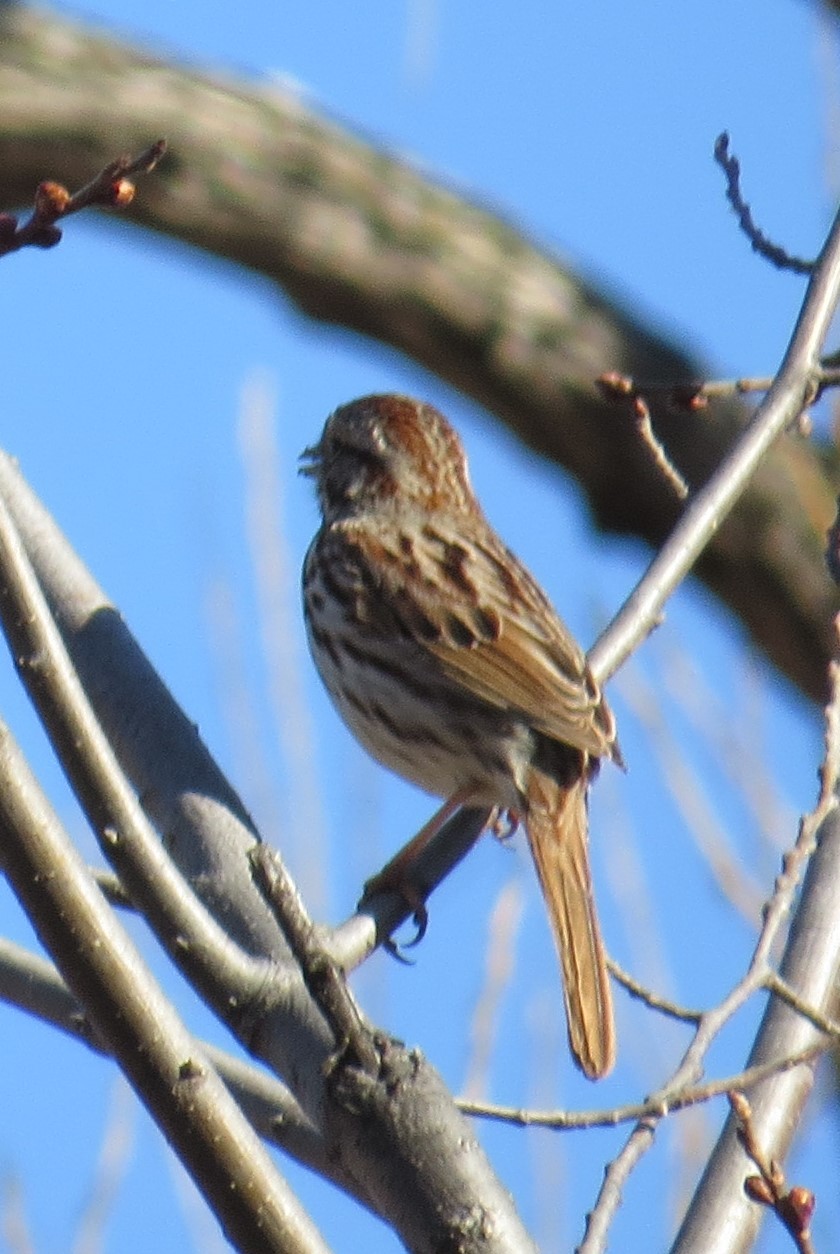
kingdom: Animalia
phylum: Chordata
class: Aves
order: Passeriformes
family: Passerellidae
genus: Melospiza
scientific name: Melospiza melodia
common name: Song sparrow
